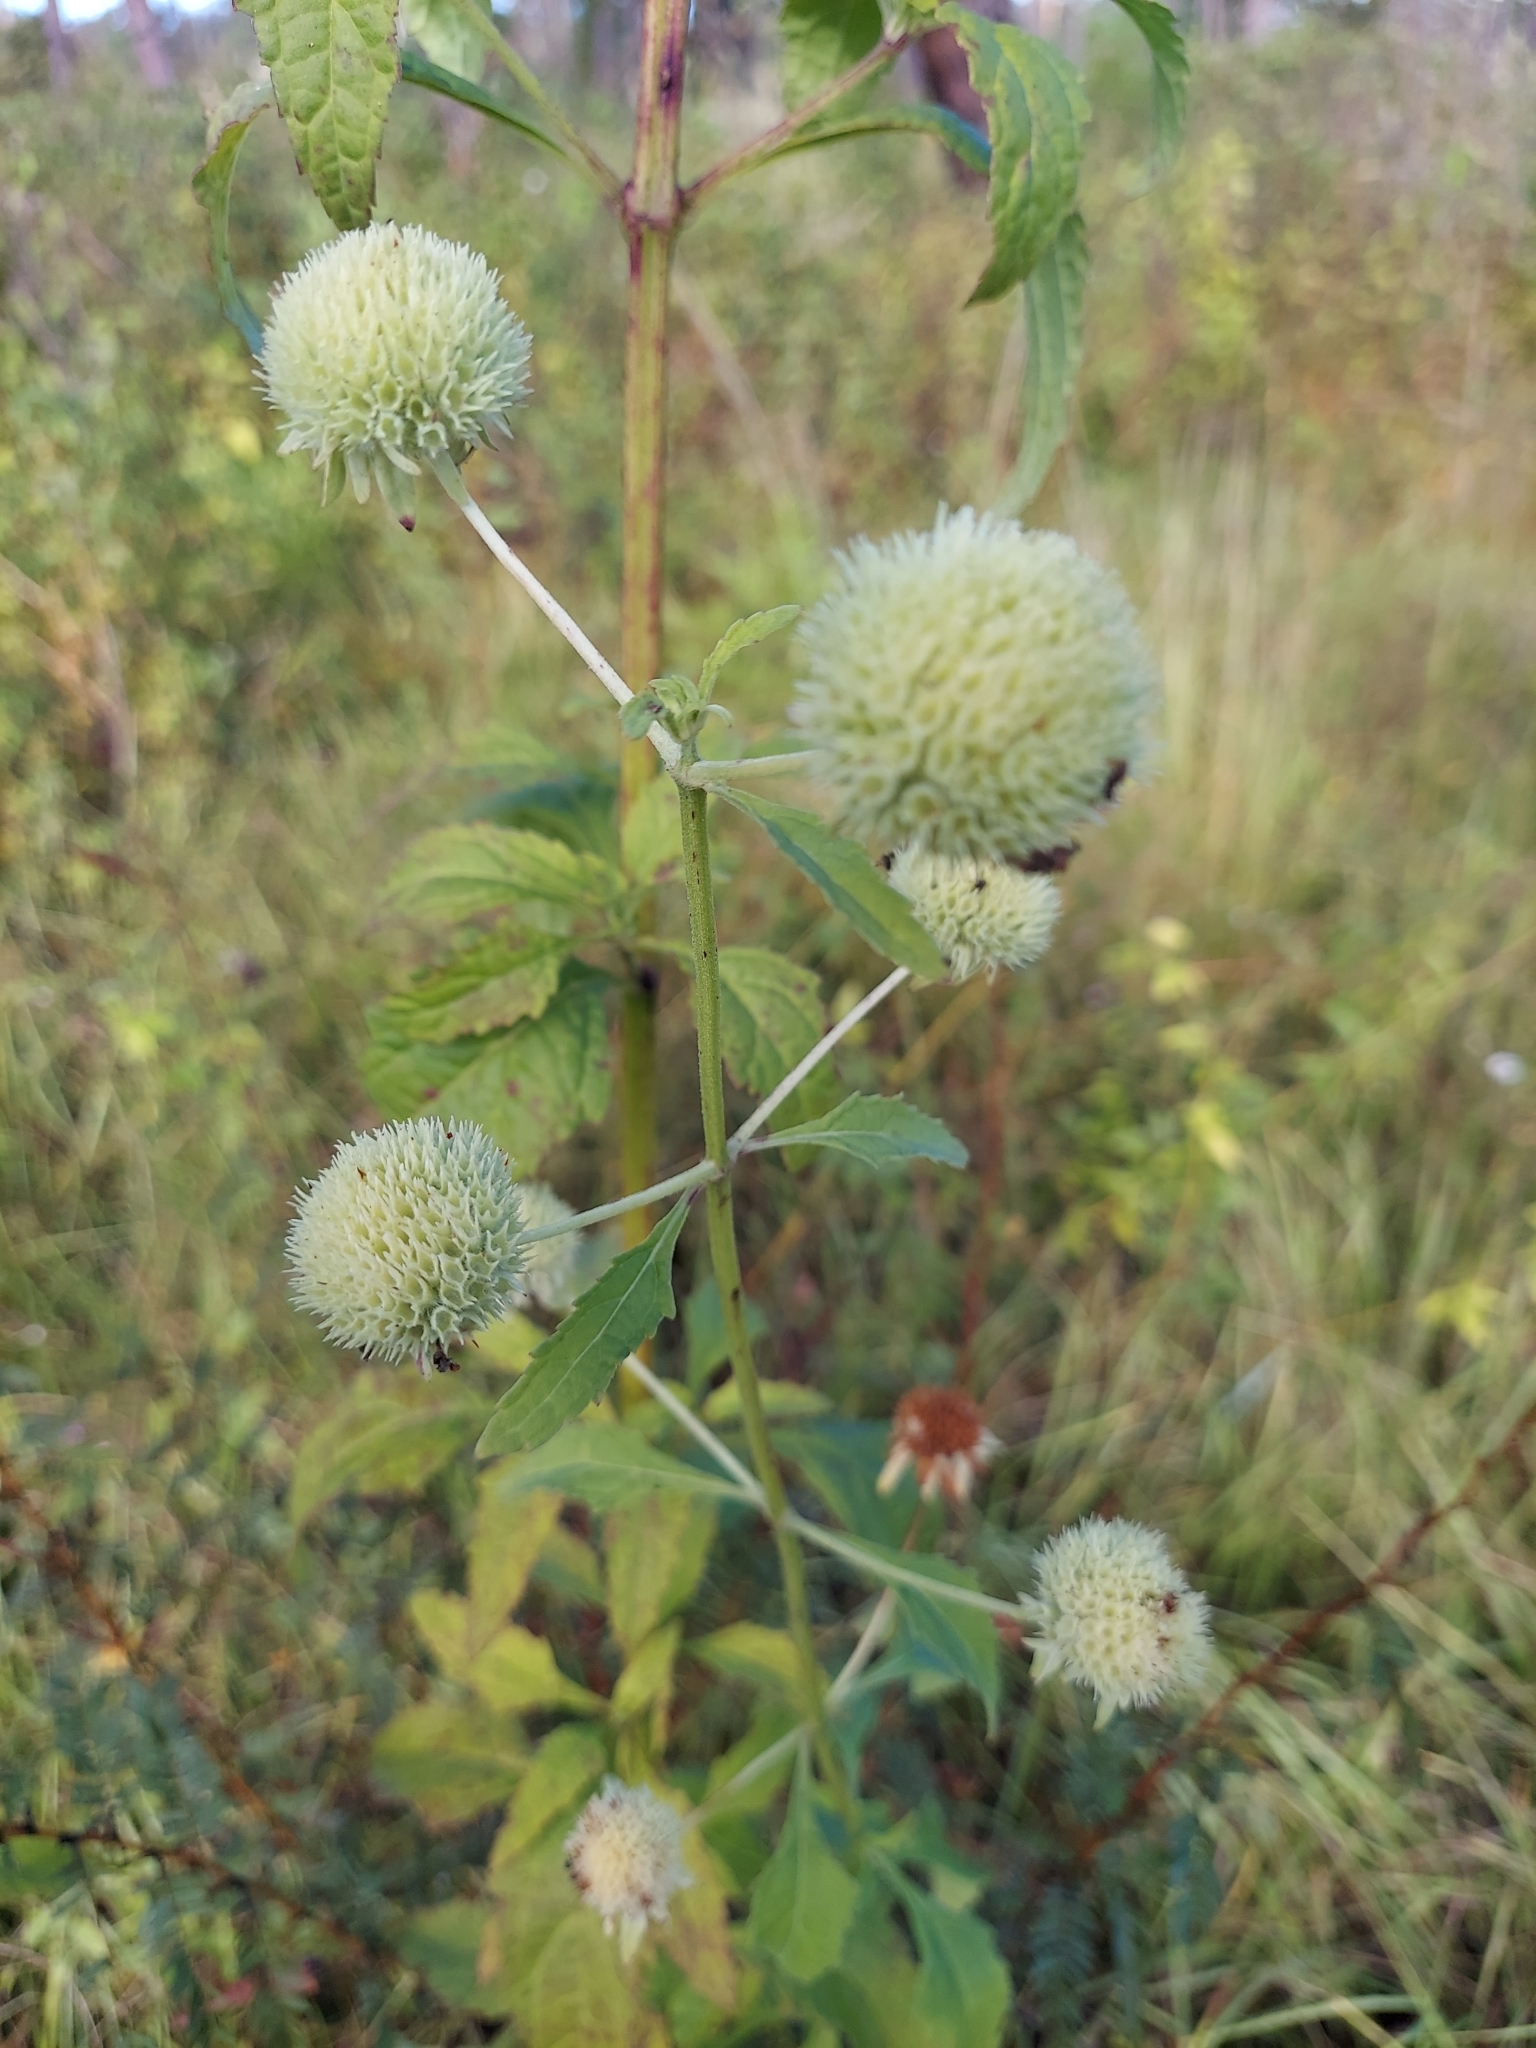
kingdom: Plantae
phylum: Tracheophyta
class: Magnoliopsida
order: Lamiales
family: Lamiaceae
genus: Hyptis
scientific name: Hyptis alata
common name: Cluster bush-mint
